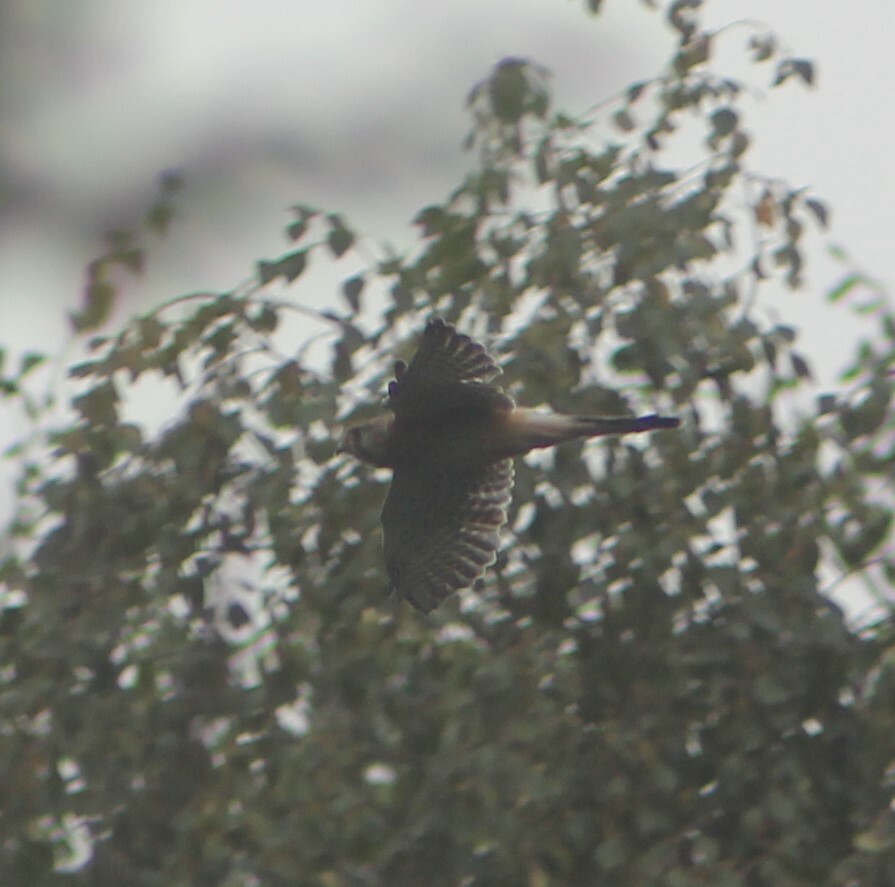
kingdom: Animalia
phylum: Chordata
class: Aves
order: Falconiformes
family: Falconidae
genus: Falco
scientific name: Falco tinnunculus
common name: Common kestrel
